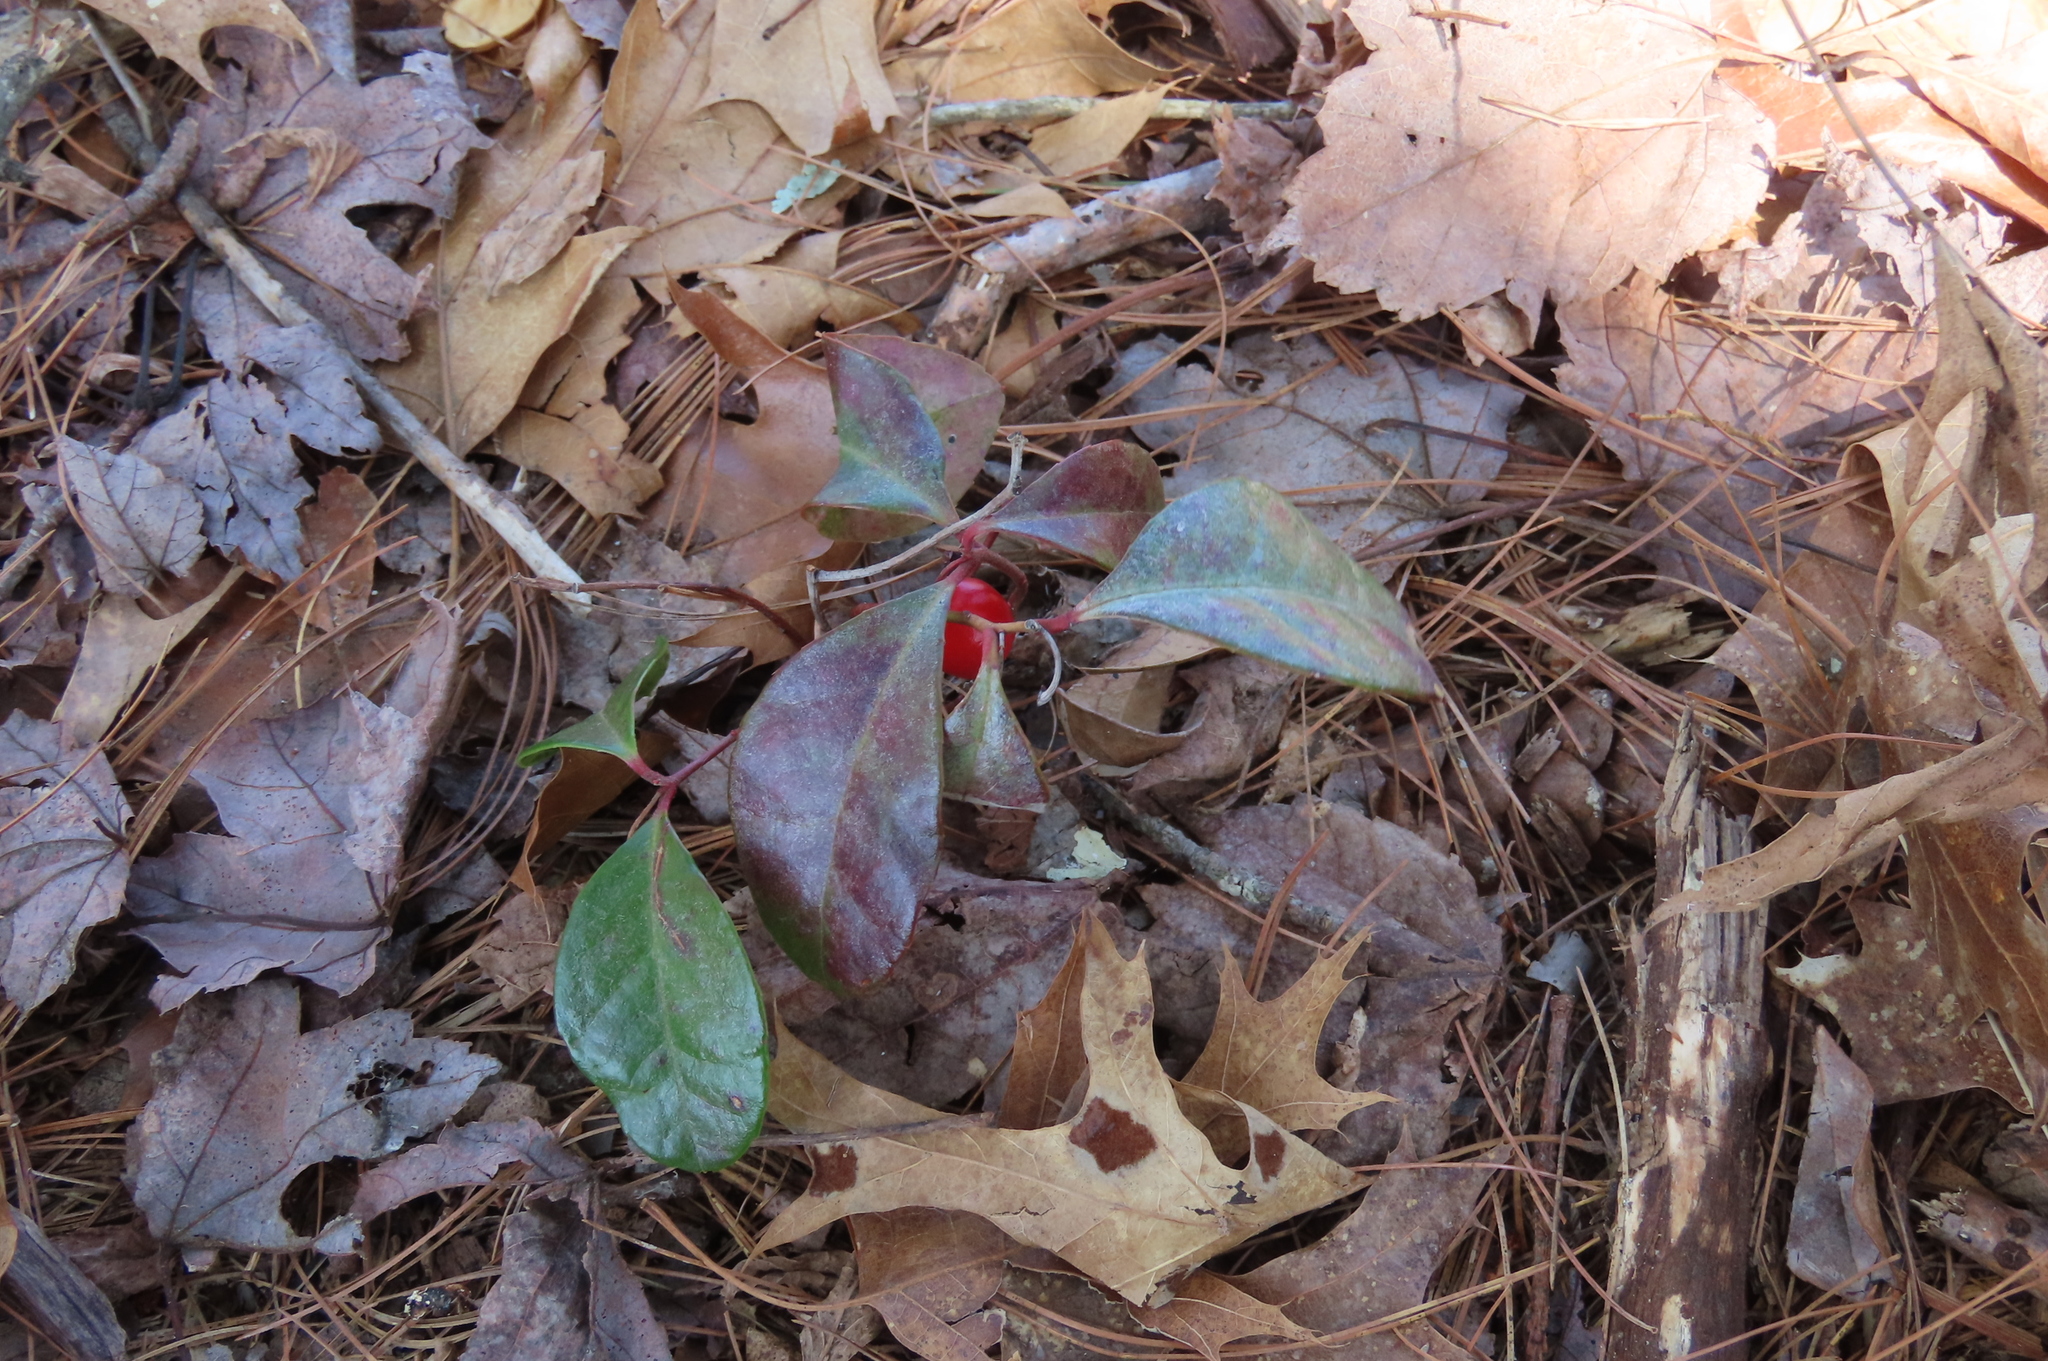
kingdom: Plantae
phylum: Tracheophyta
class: Magnoliopsida
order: Ericales
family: Ericaceae
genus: Gaultheria
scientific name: Gaultheria procumbens
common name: Checkerberry
